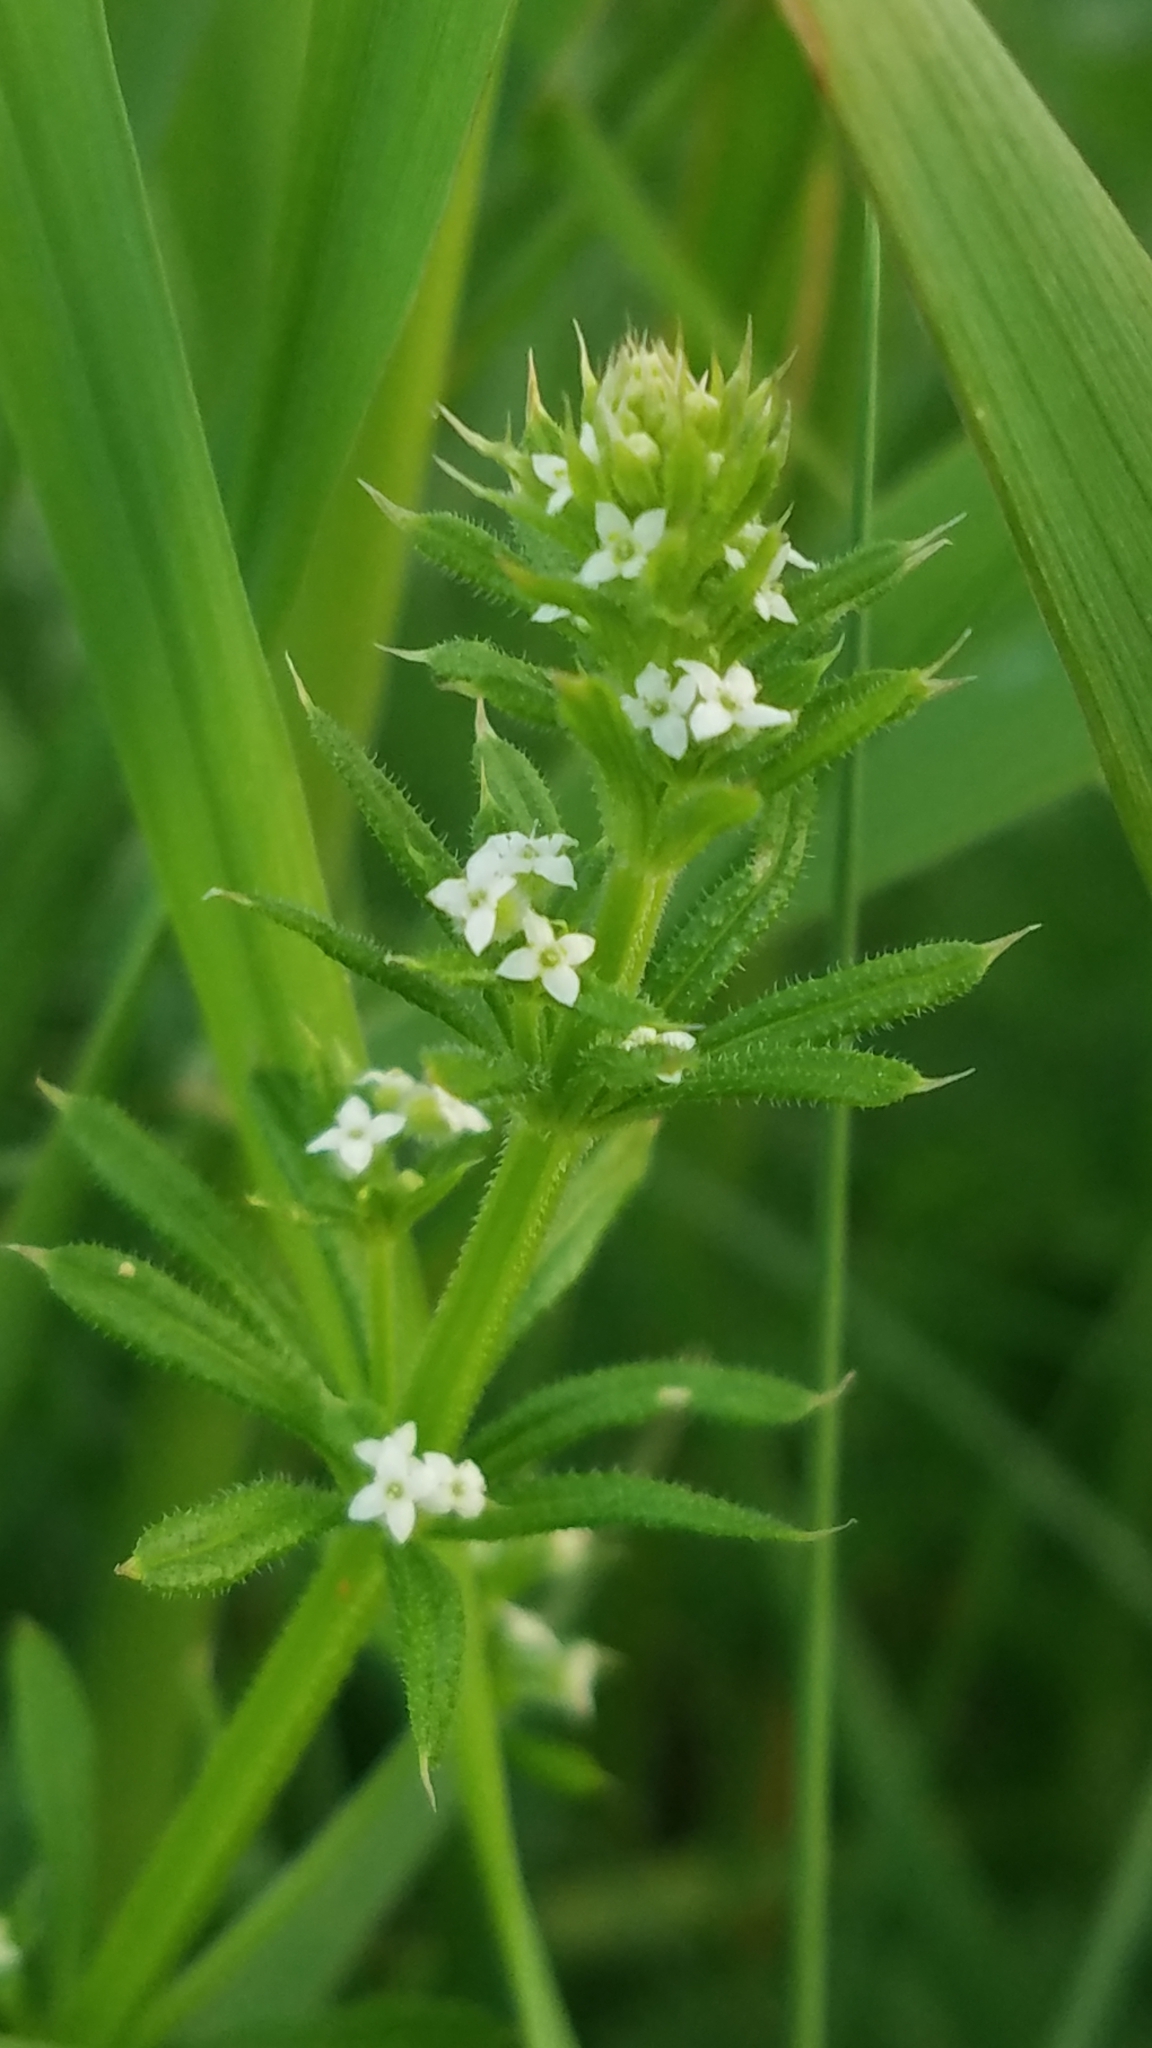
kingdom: Plantae
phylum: Tracheophyta
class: Magnoliopsida
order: Gentianales
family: Rubiaceae
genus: Galium
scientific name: Galium aparine
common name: Cleavers
